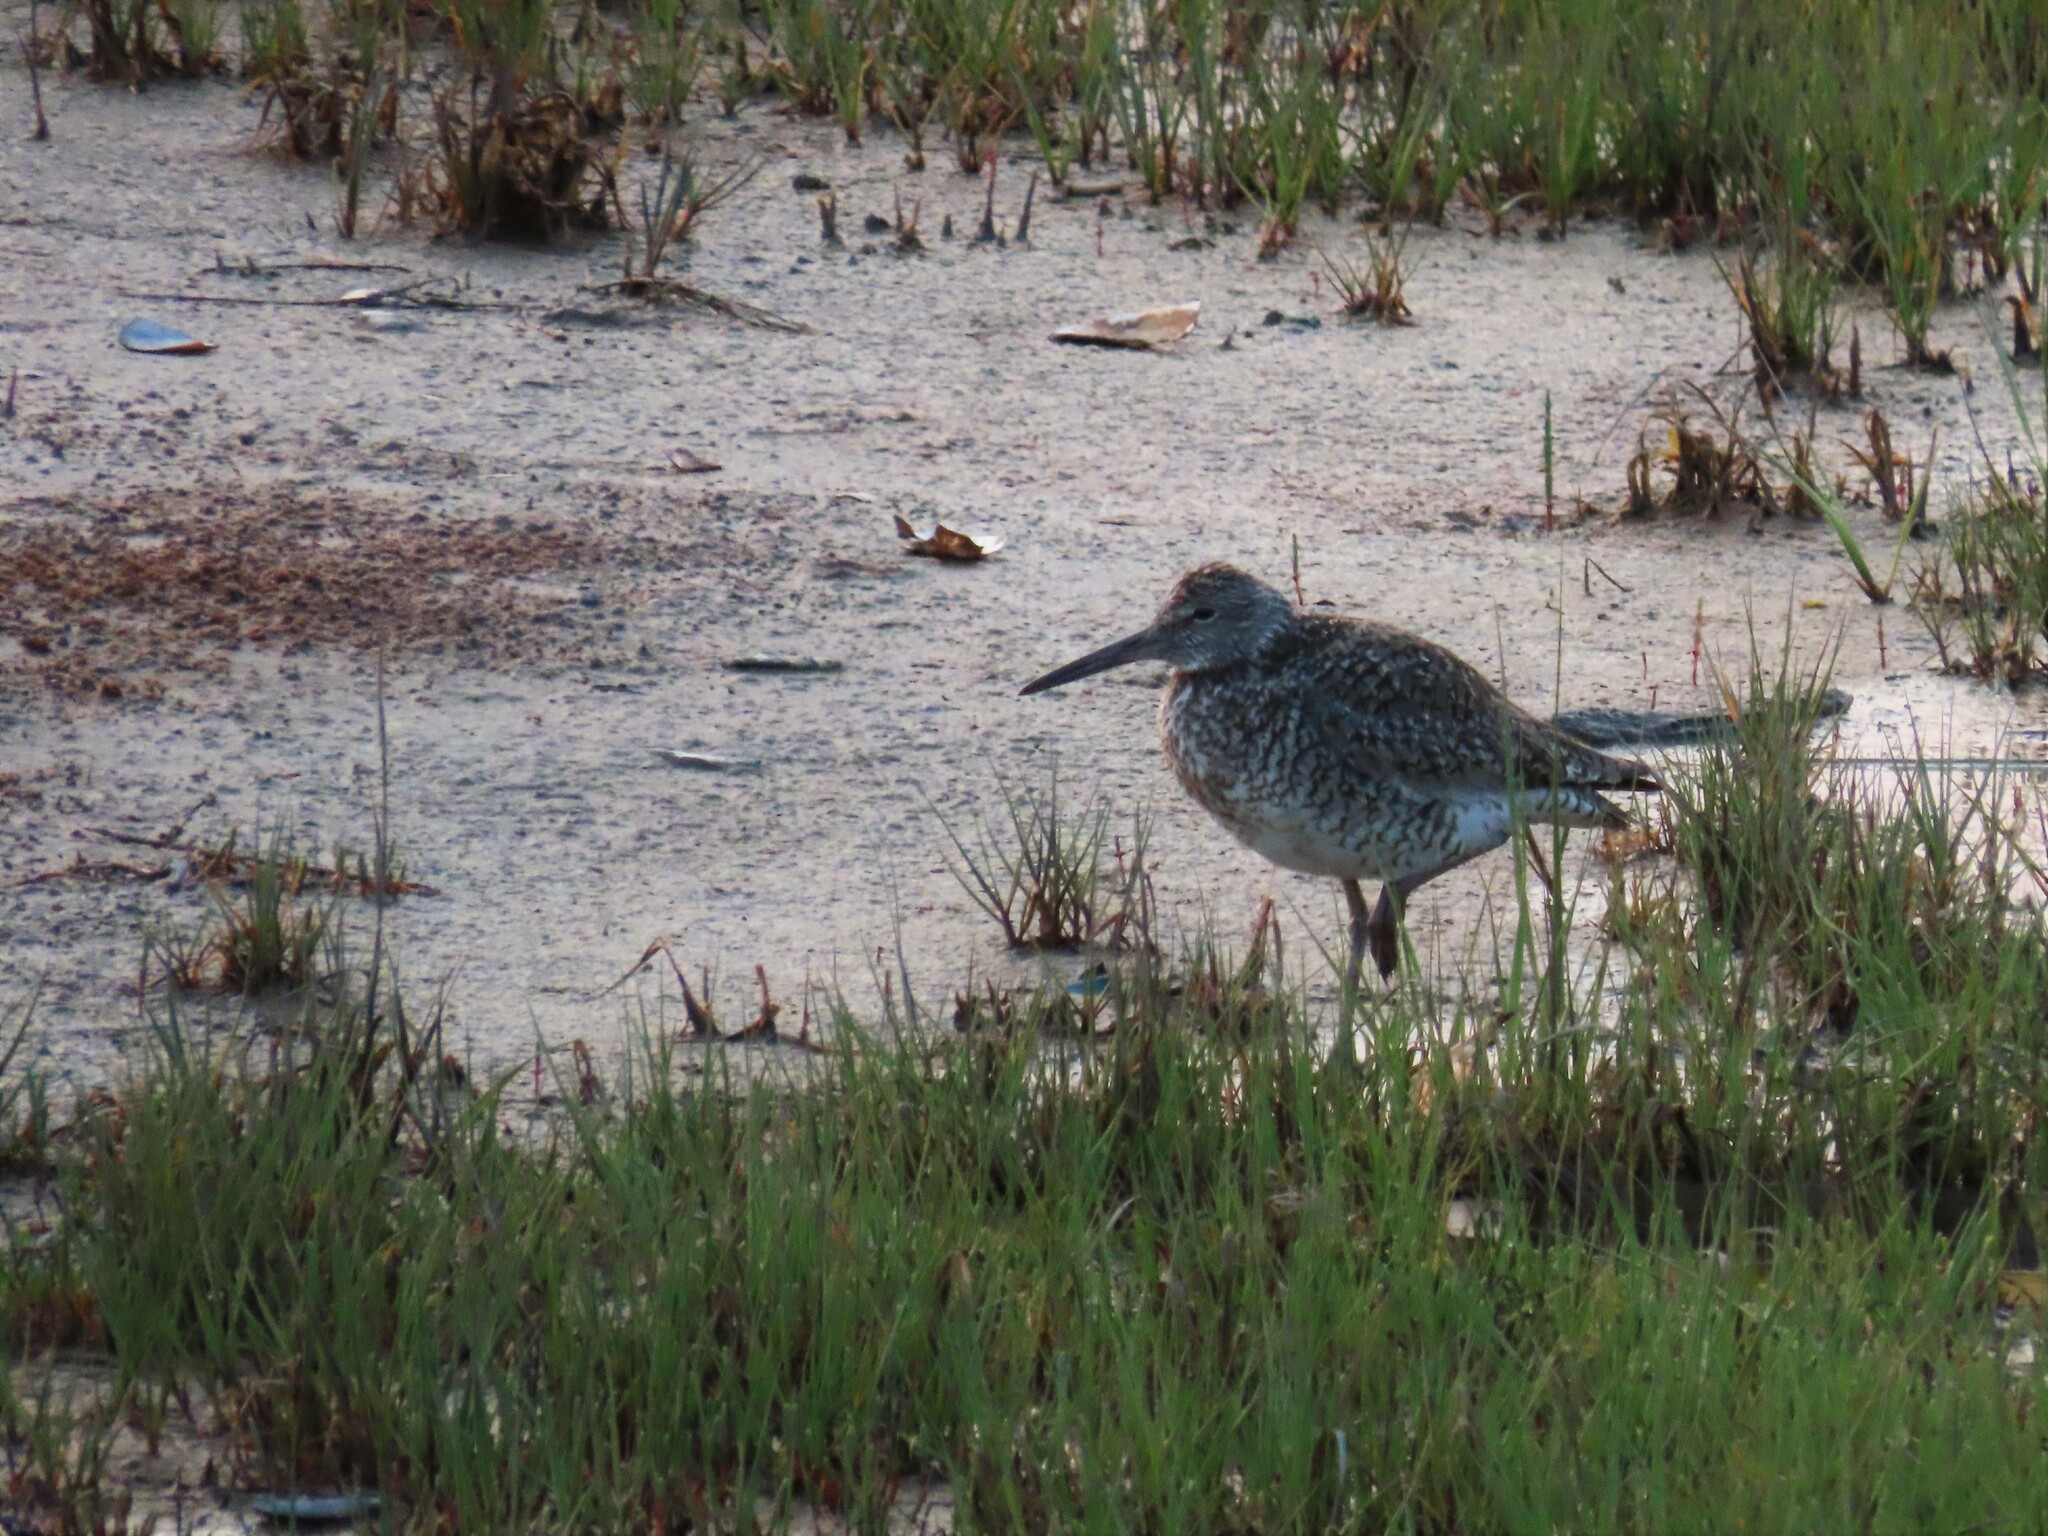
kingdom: Animalia
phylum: Chordata
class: Aves
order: Charadriiformes
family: Scolopacidae
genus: Tringa
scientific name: Tringa semipalmata
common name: Willet
